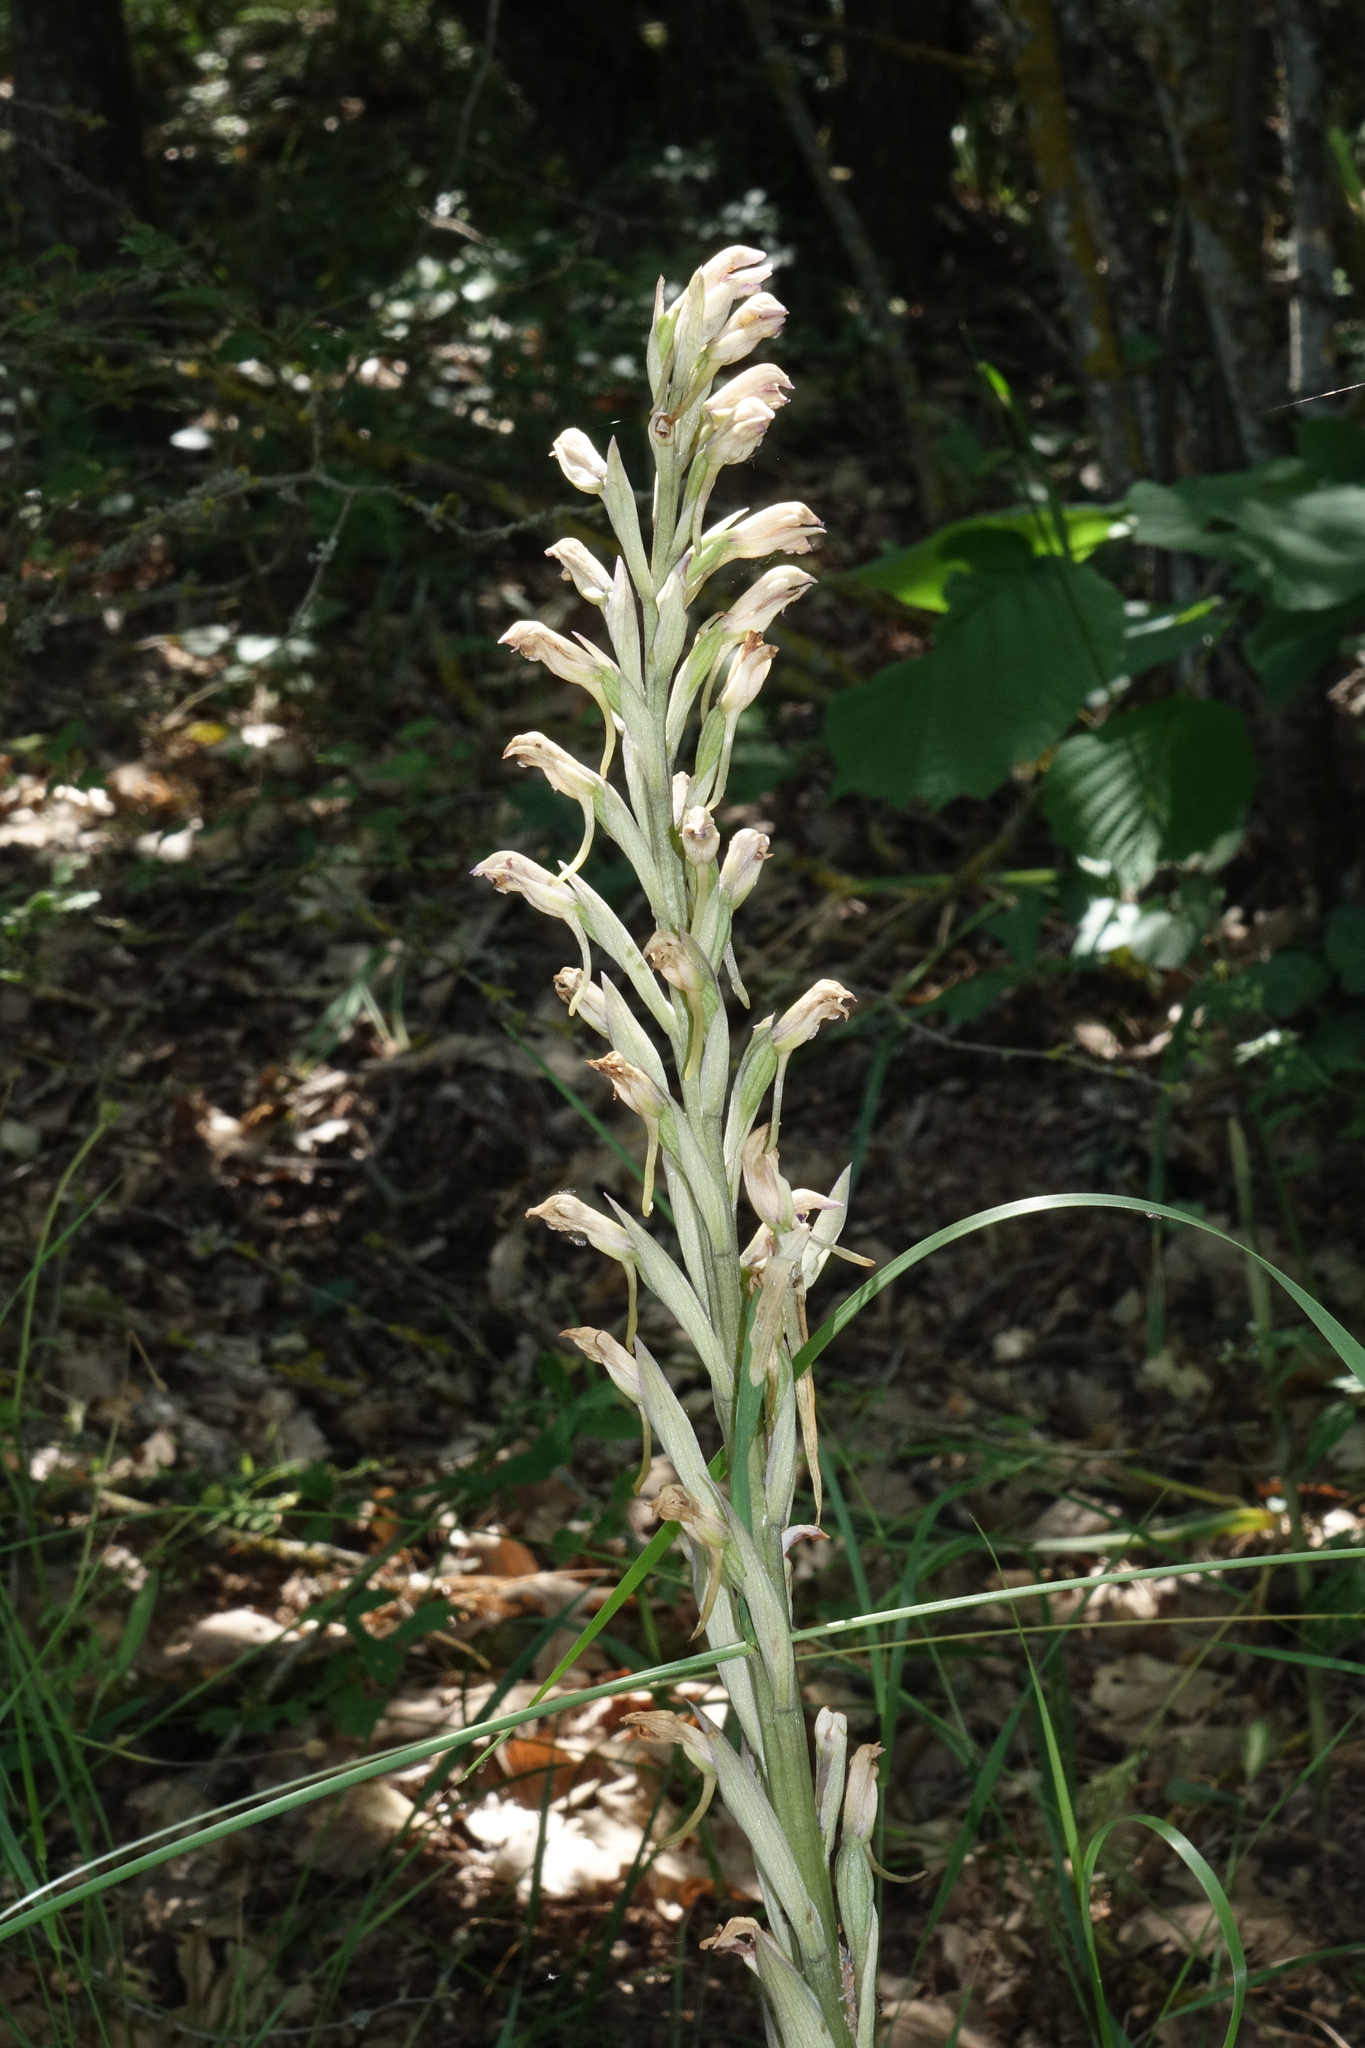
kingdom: Plantae
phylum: Tracheophyta
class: Liliopsida
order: Asparagales
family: Orchidaceae
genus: Limodorum
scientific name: Limodorum abortivum
